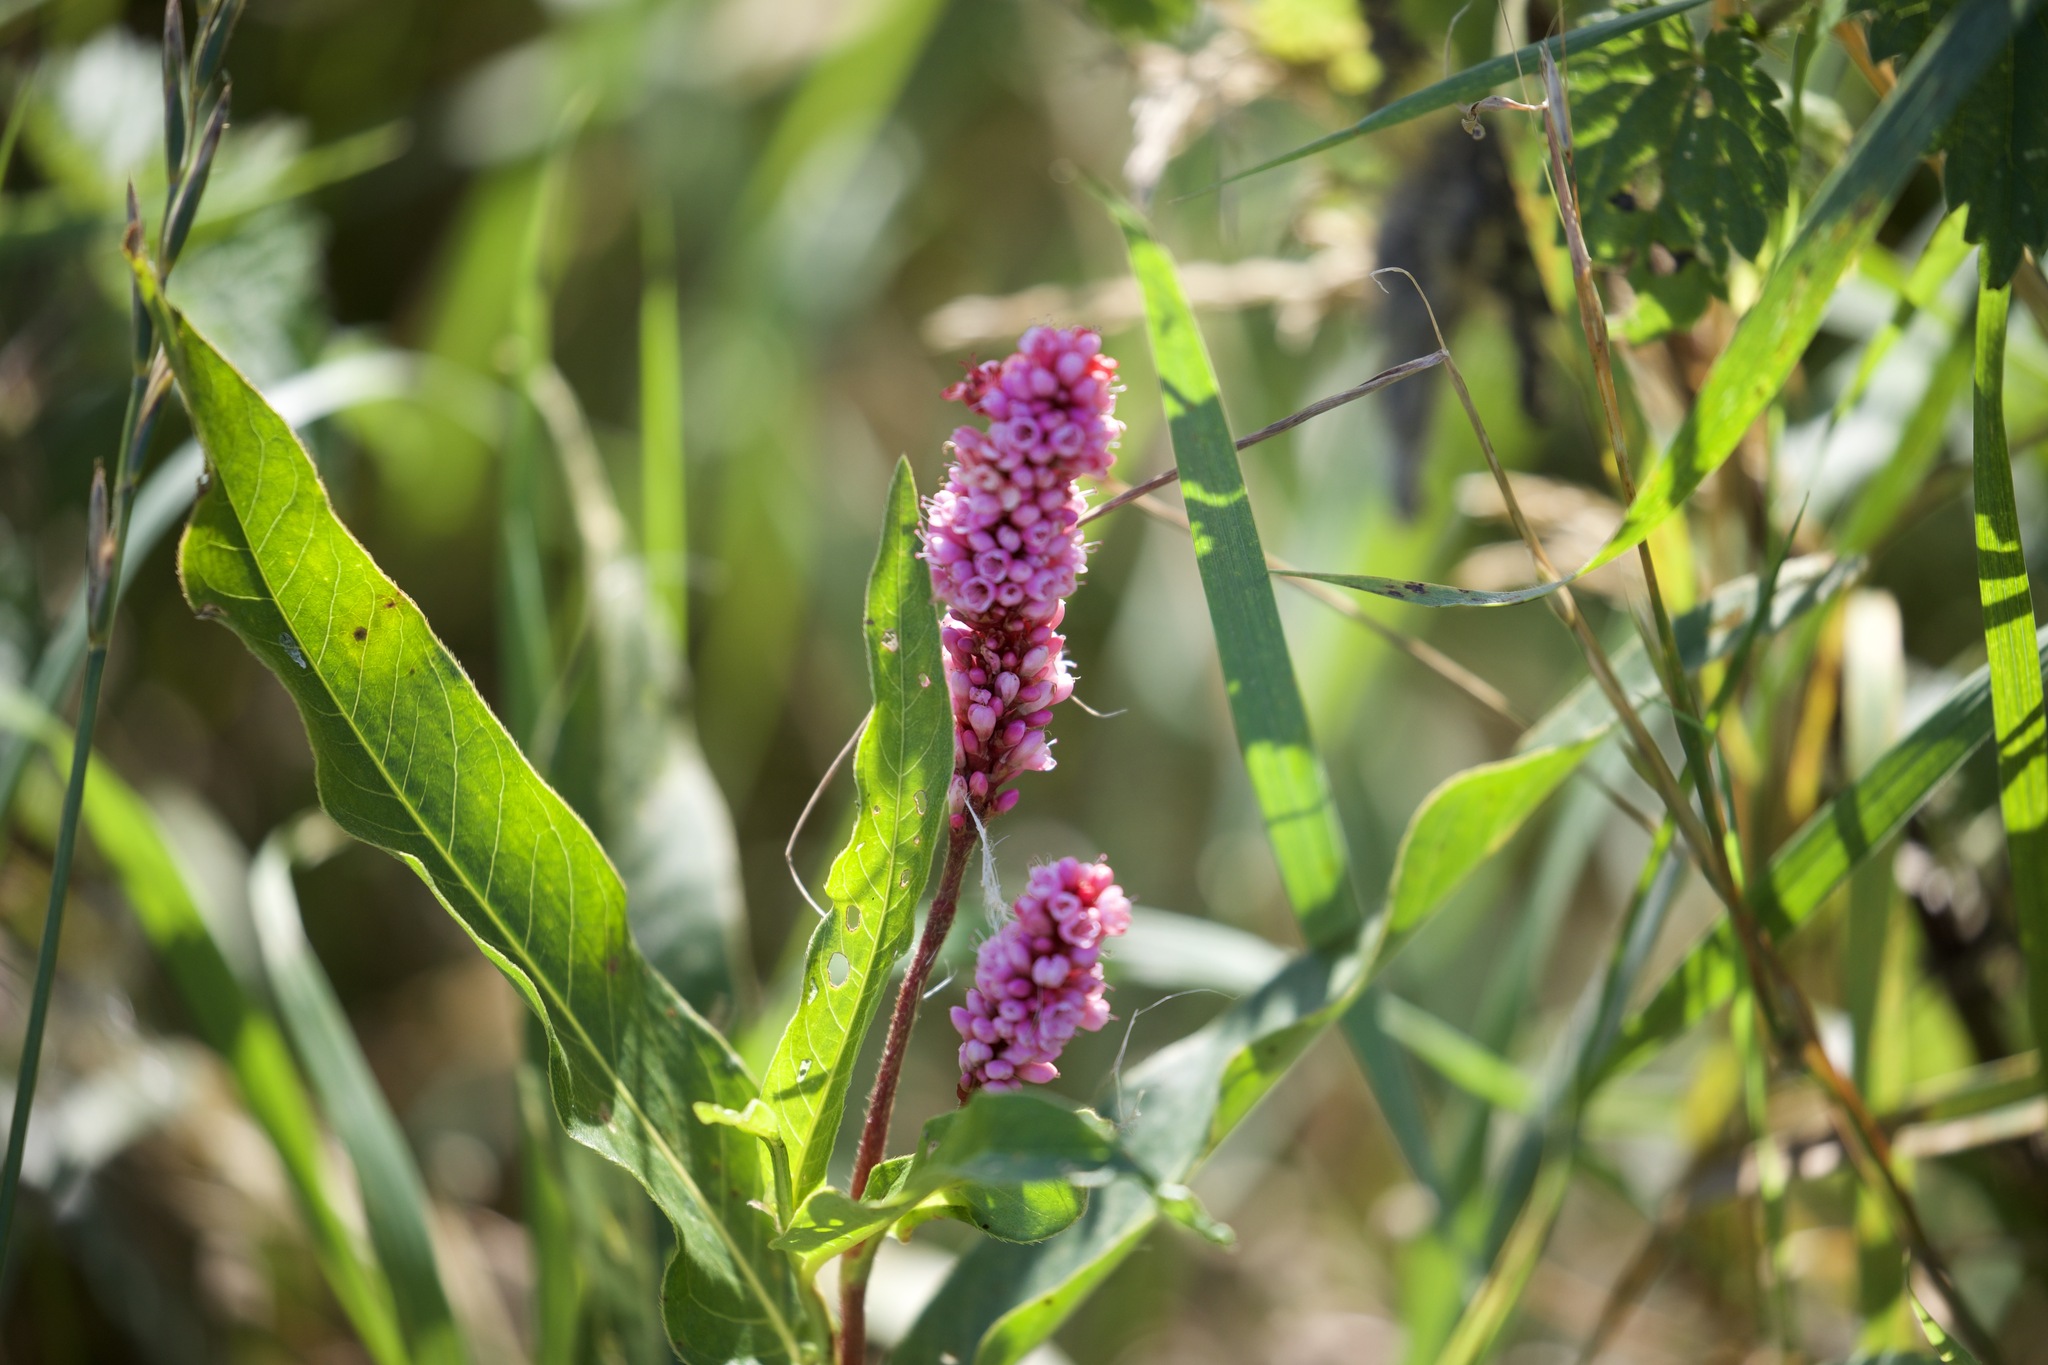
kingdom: Plantae
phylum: Tracheophyta
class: Magnoliopsida
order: Caryophyllales
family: Polygonaceae
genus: Persicaria
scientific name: Persicaria amphibia
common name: Amphibious bistort
